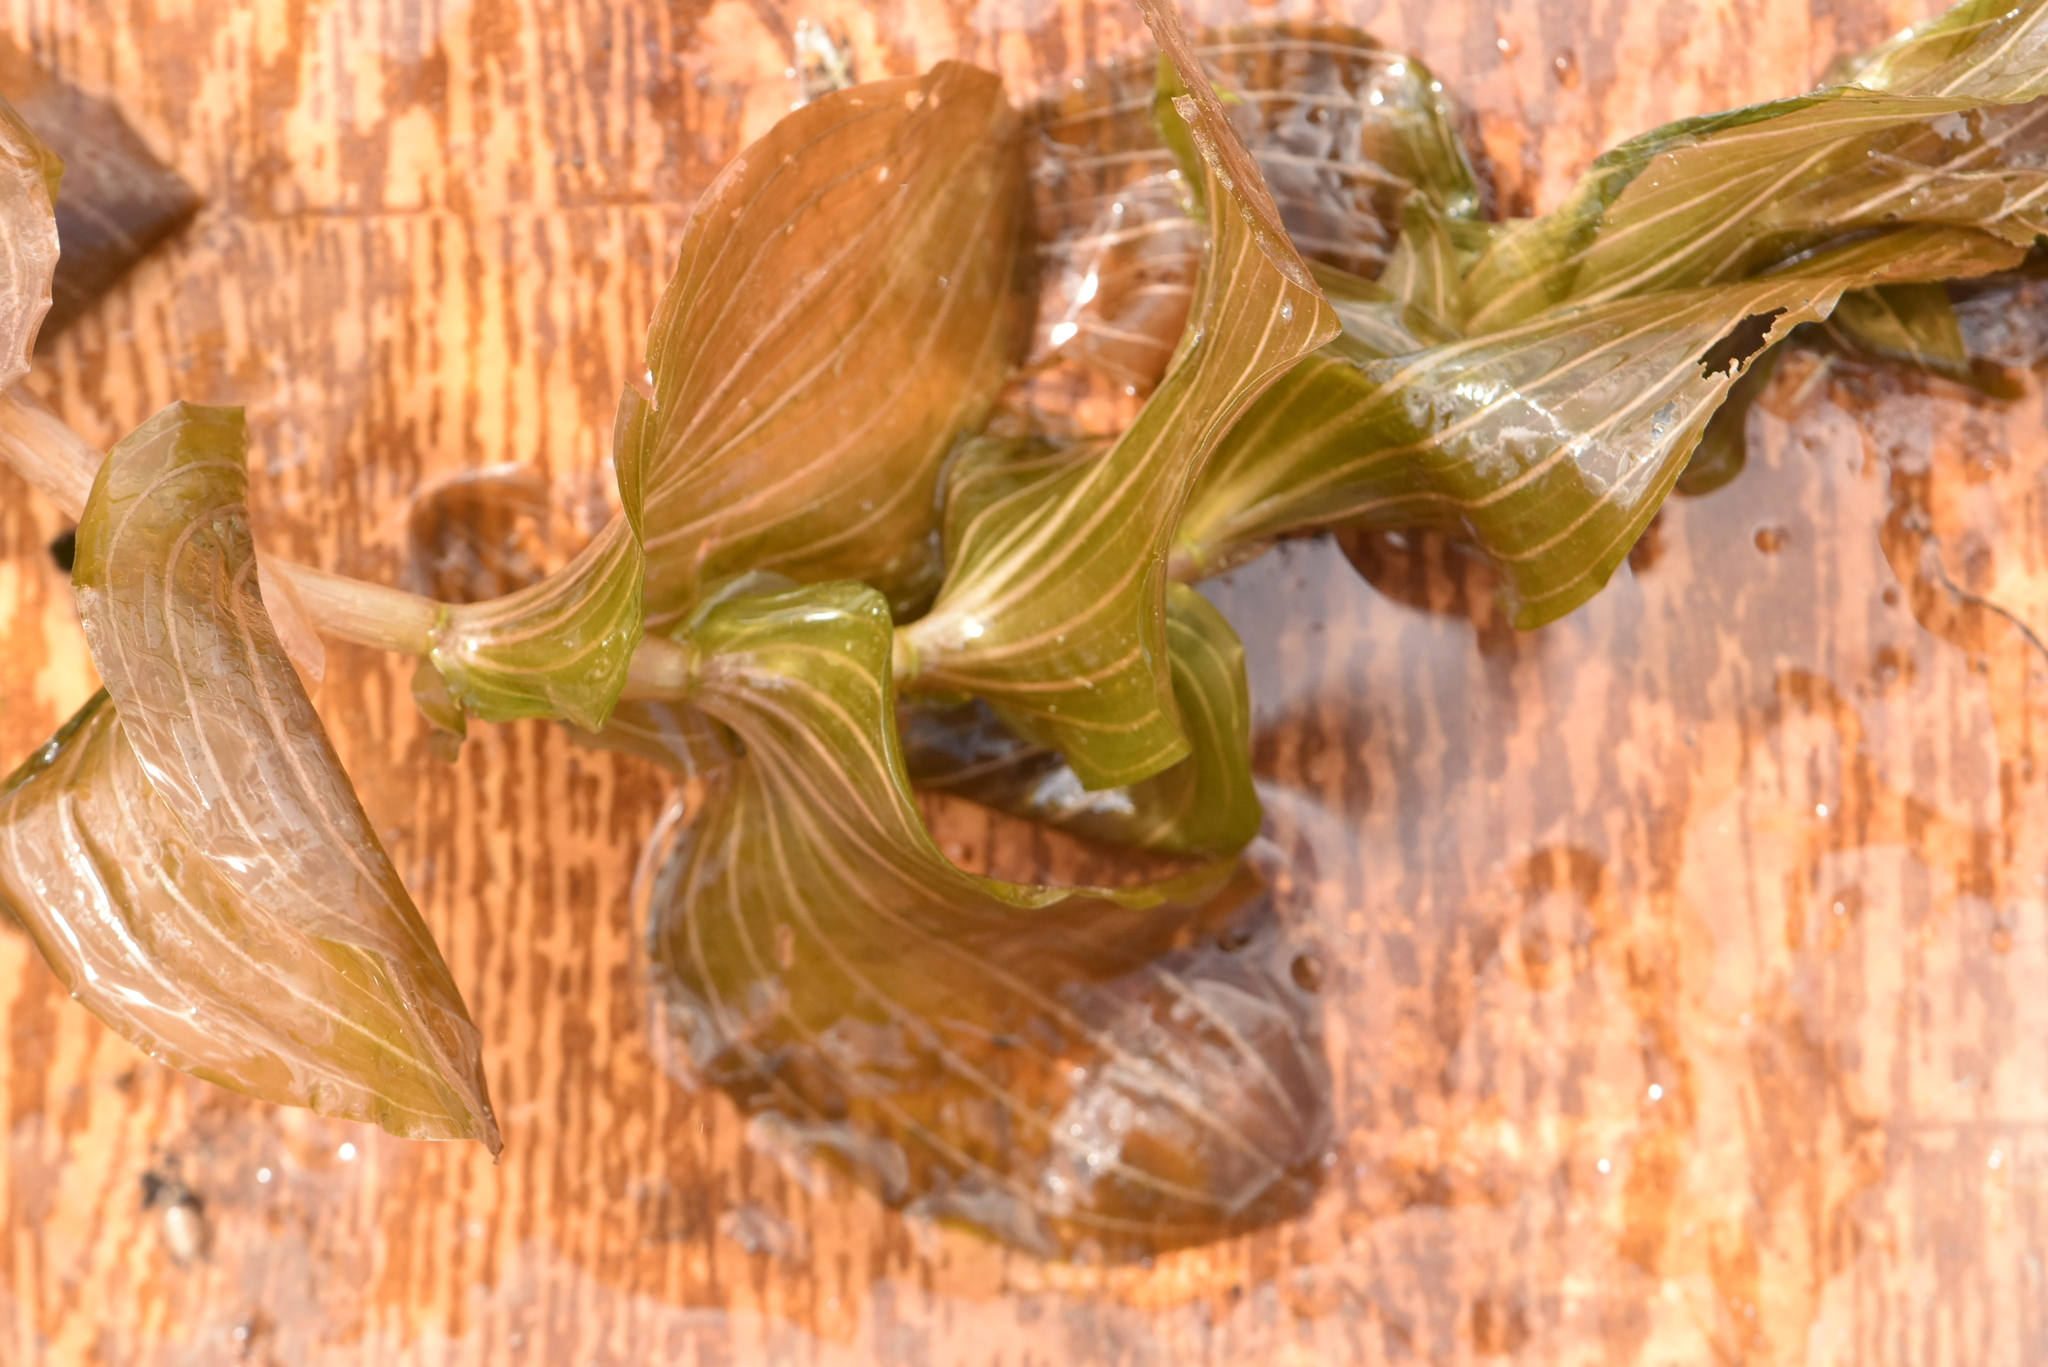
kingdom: Plantae
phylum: Tracheophyta
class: Liliopsida
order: Alismatales
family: Potamogetonaceae
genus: Potamogeton
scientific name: Potamogeton perfoliatus
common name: Perfoliate pondweed
